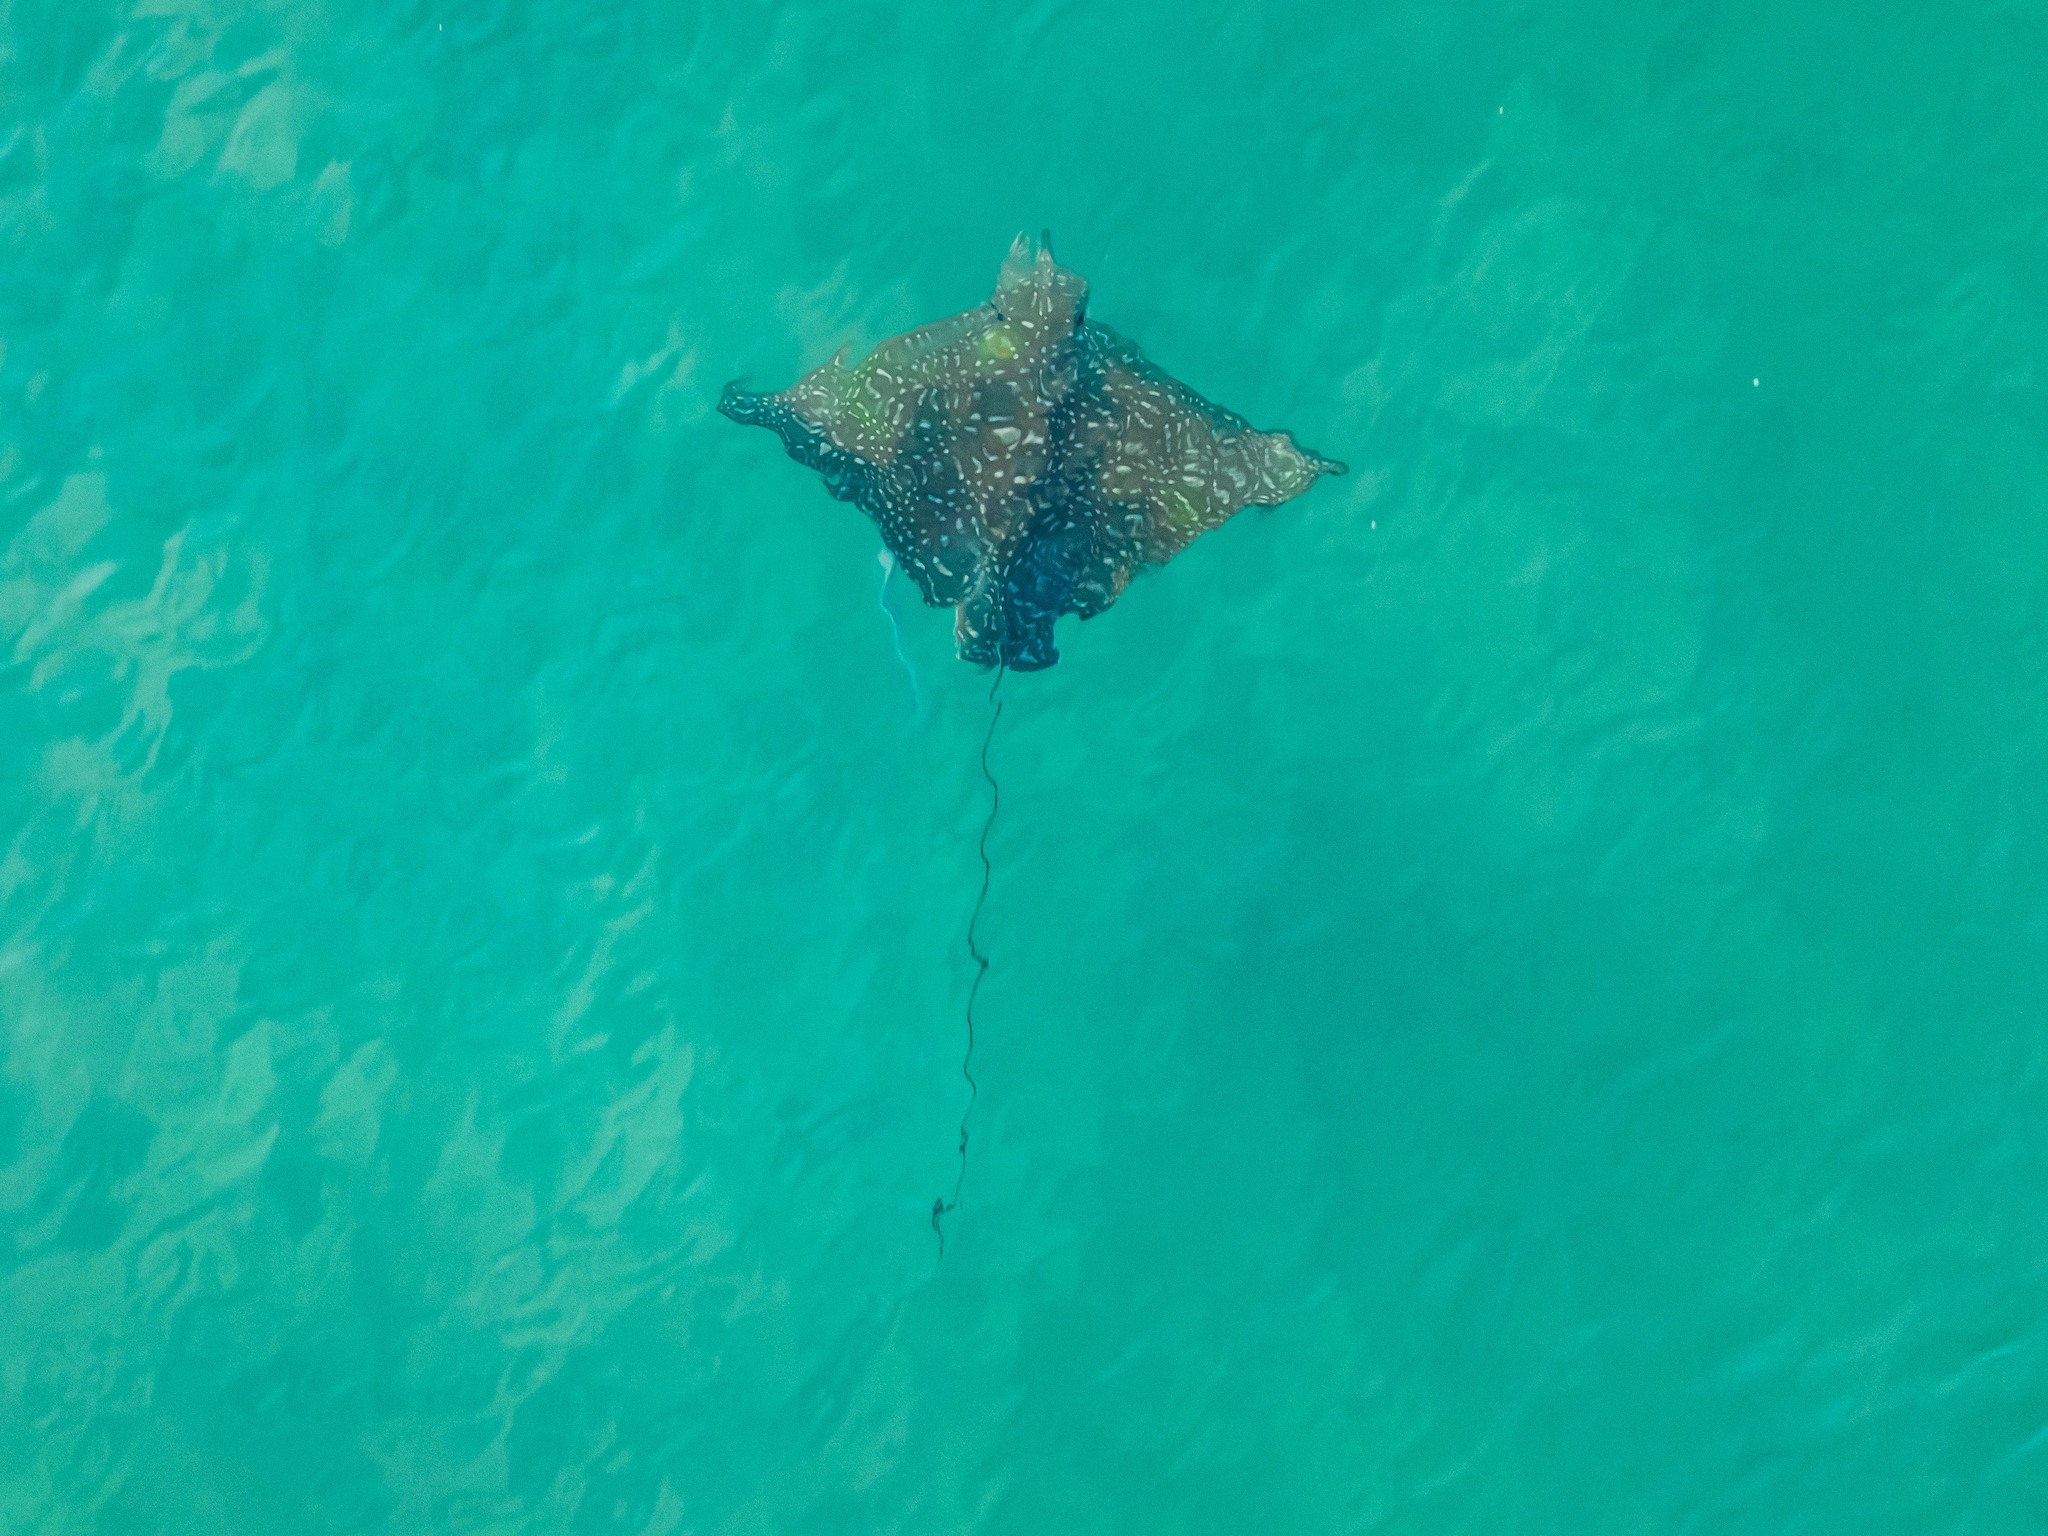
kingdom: Animalia
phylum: Chordata
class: Elasmobranchii
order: Myliobatiformes
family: Myliobatidae
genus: Aetobatus
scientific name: Aetobatus narinari
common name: Spotted eagle ray
